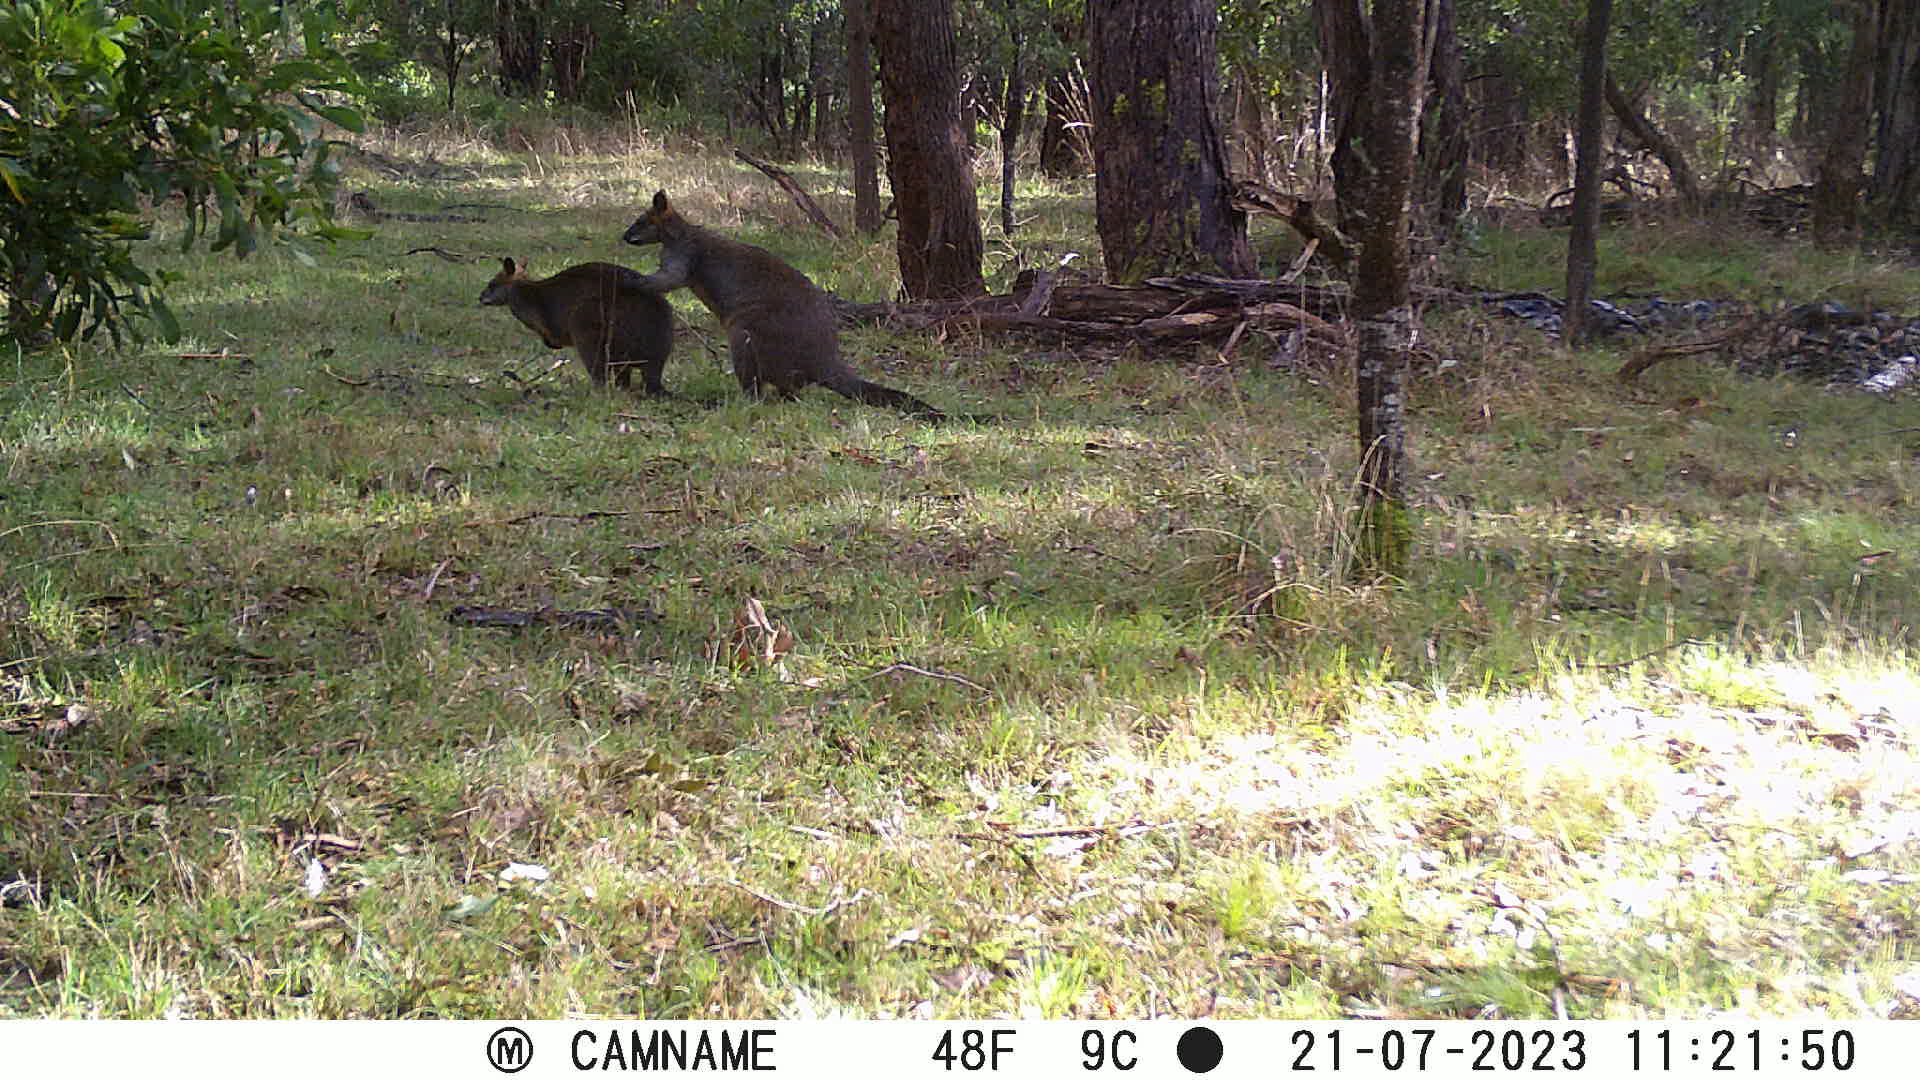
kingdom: Animalia
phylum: Chordata
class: Mammalia
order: Diprotodontia
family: Macropodidae
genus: Wallabia
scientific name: Wallabia bicolor
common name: Swamp wallaby
